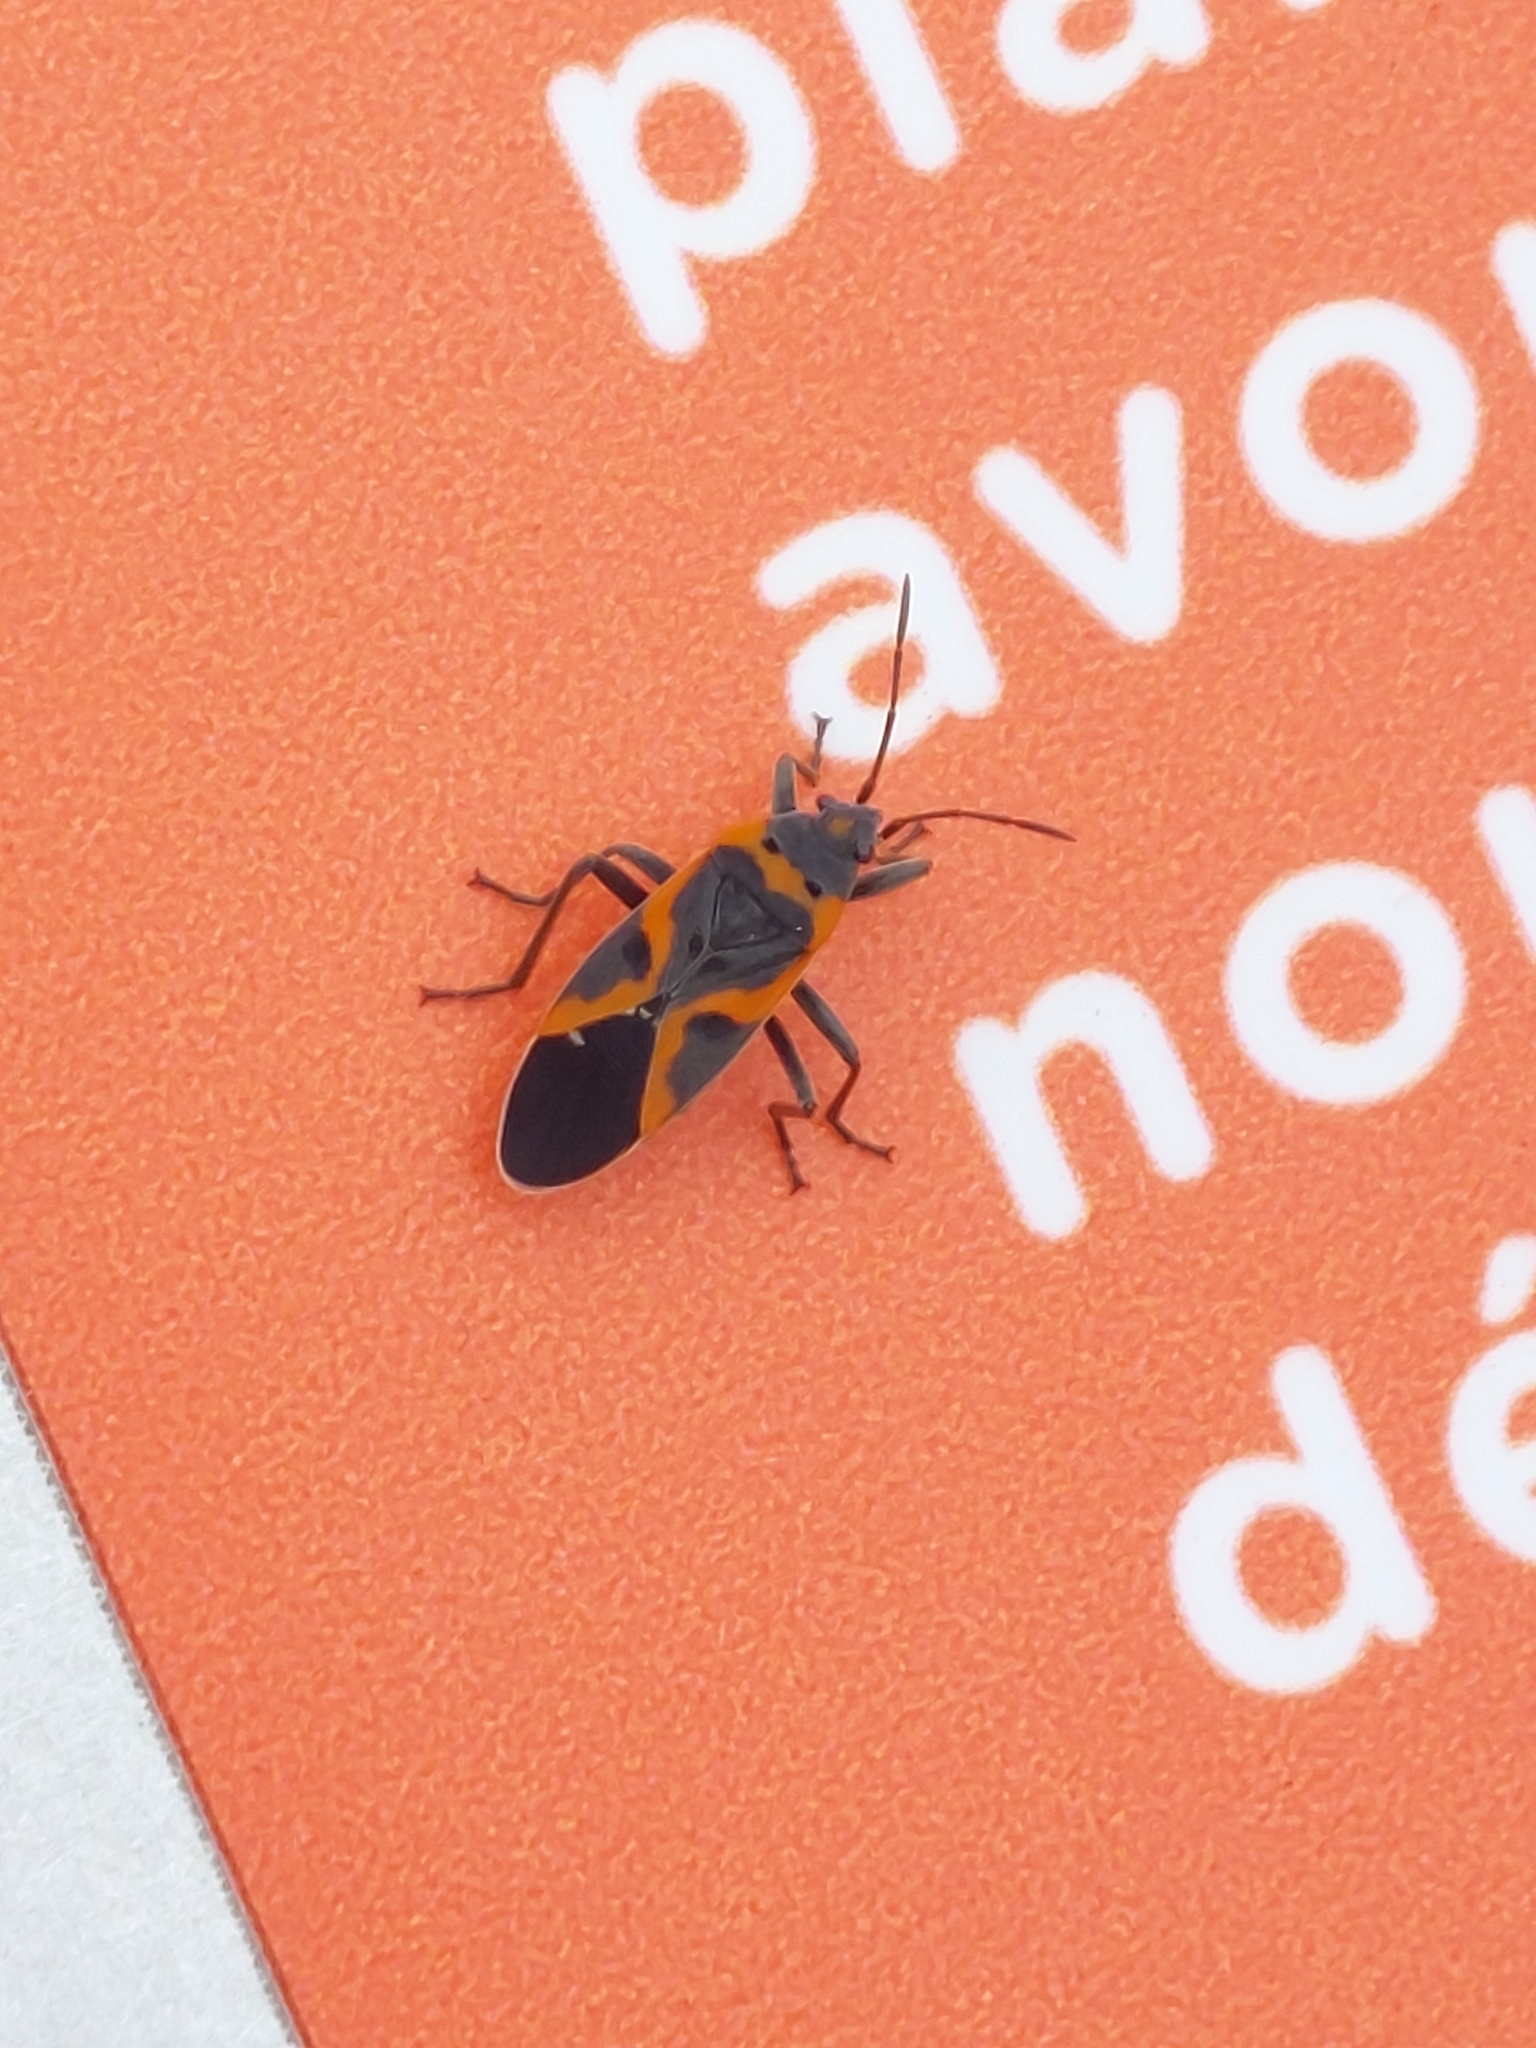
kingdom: Animalia
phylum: Arthropoda
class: Insecta
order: Hemiptera
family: Lygaeidae
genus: Lygaeus
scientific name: Lygaeus kalmii
